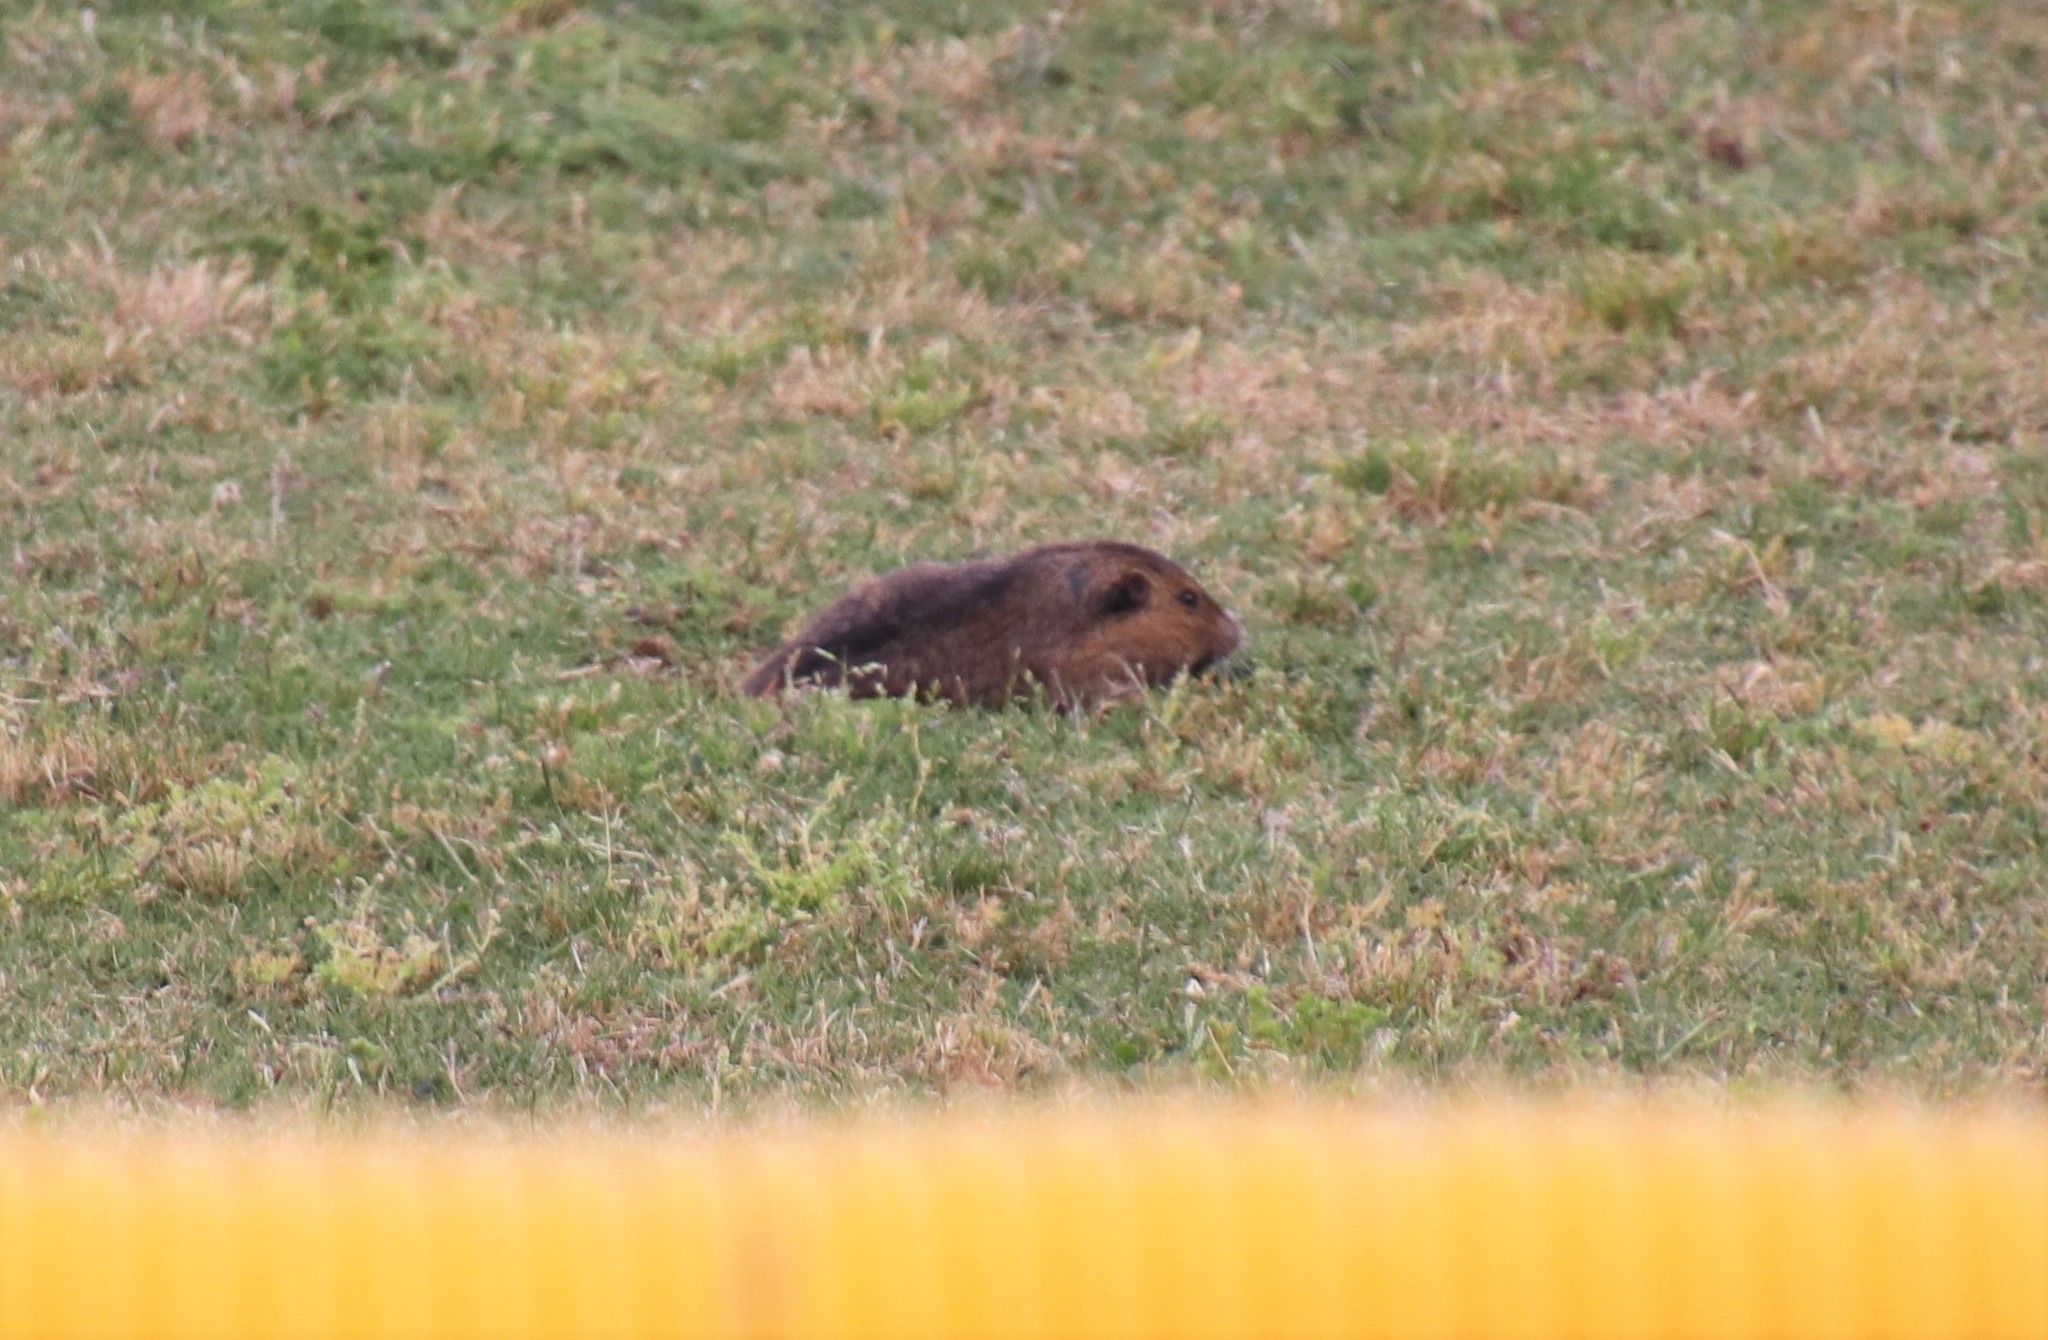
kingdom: Animalia
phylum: Chordata
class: Mammalia
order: Rodentia
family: Geomyidae
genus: Thomomys
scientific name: Thomomys bottae
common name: Botta's pocket gopher
